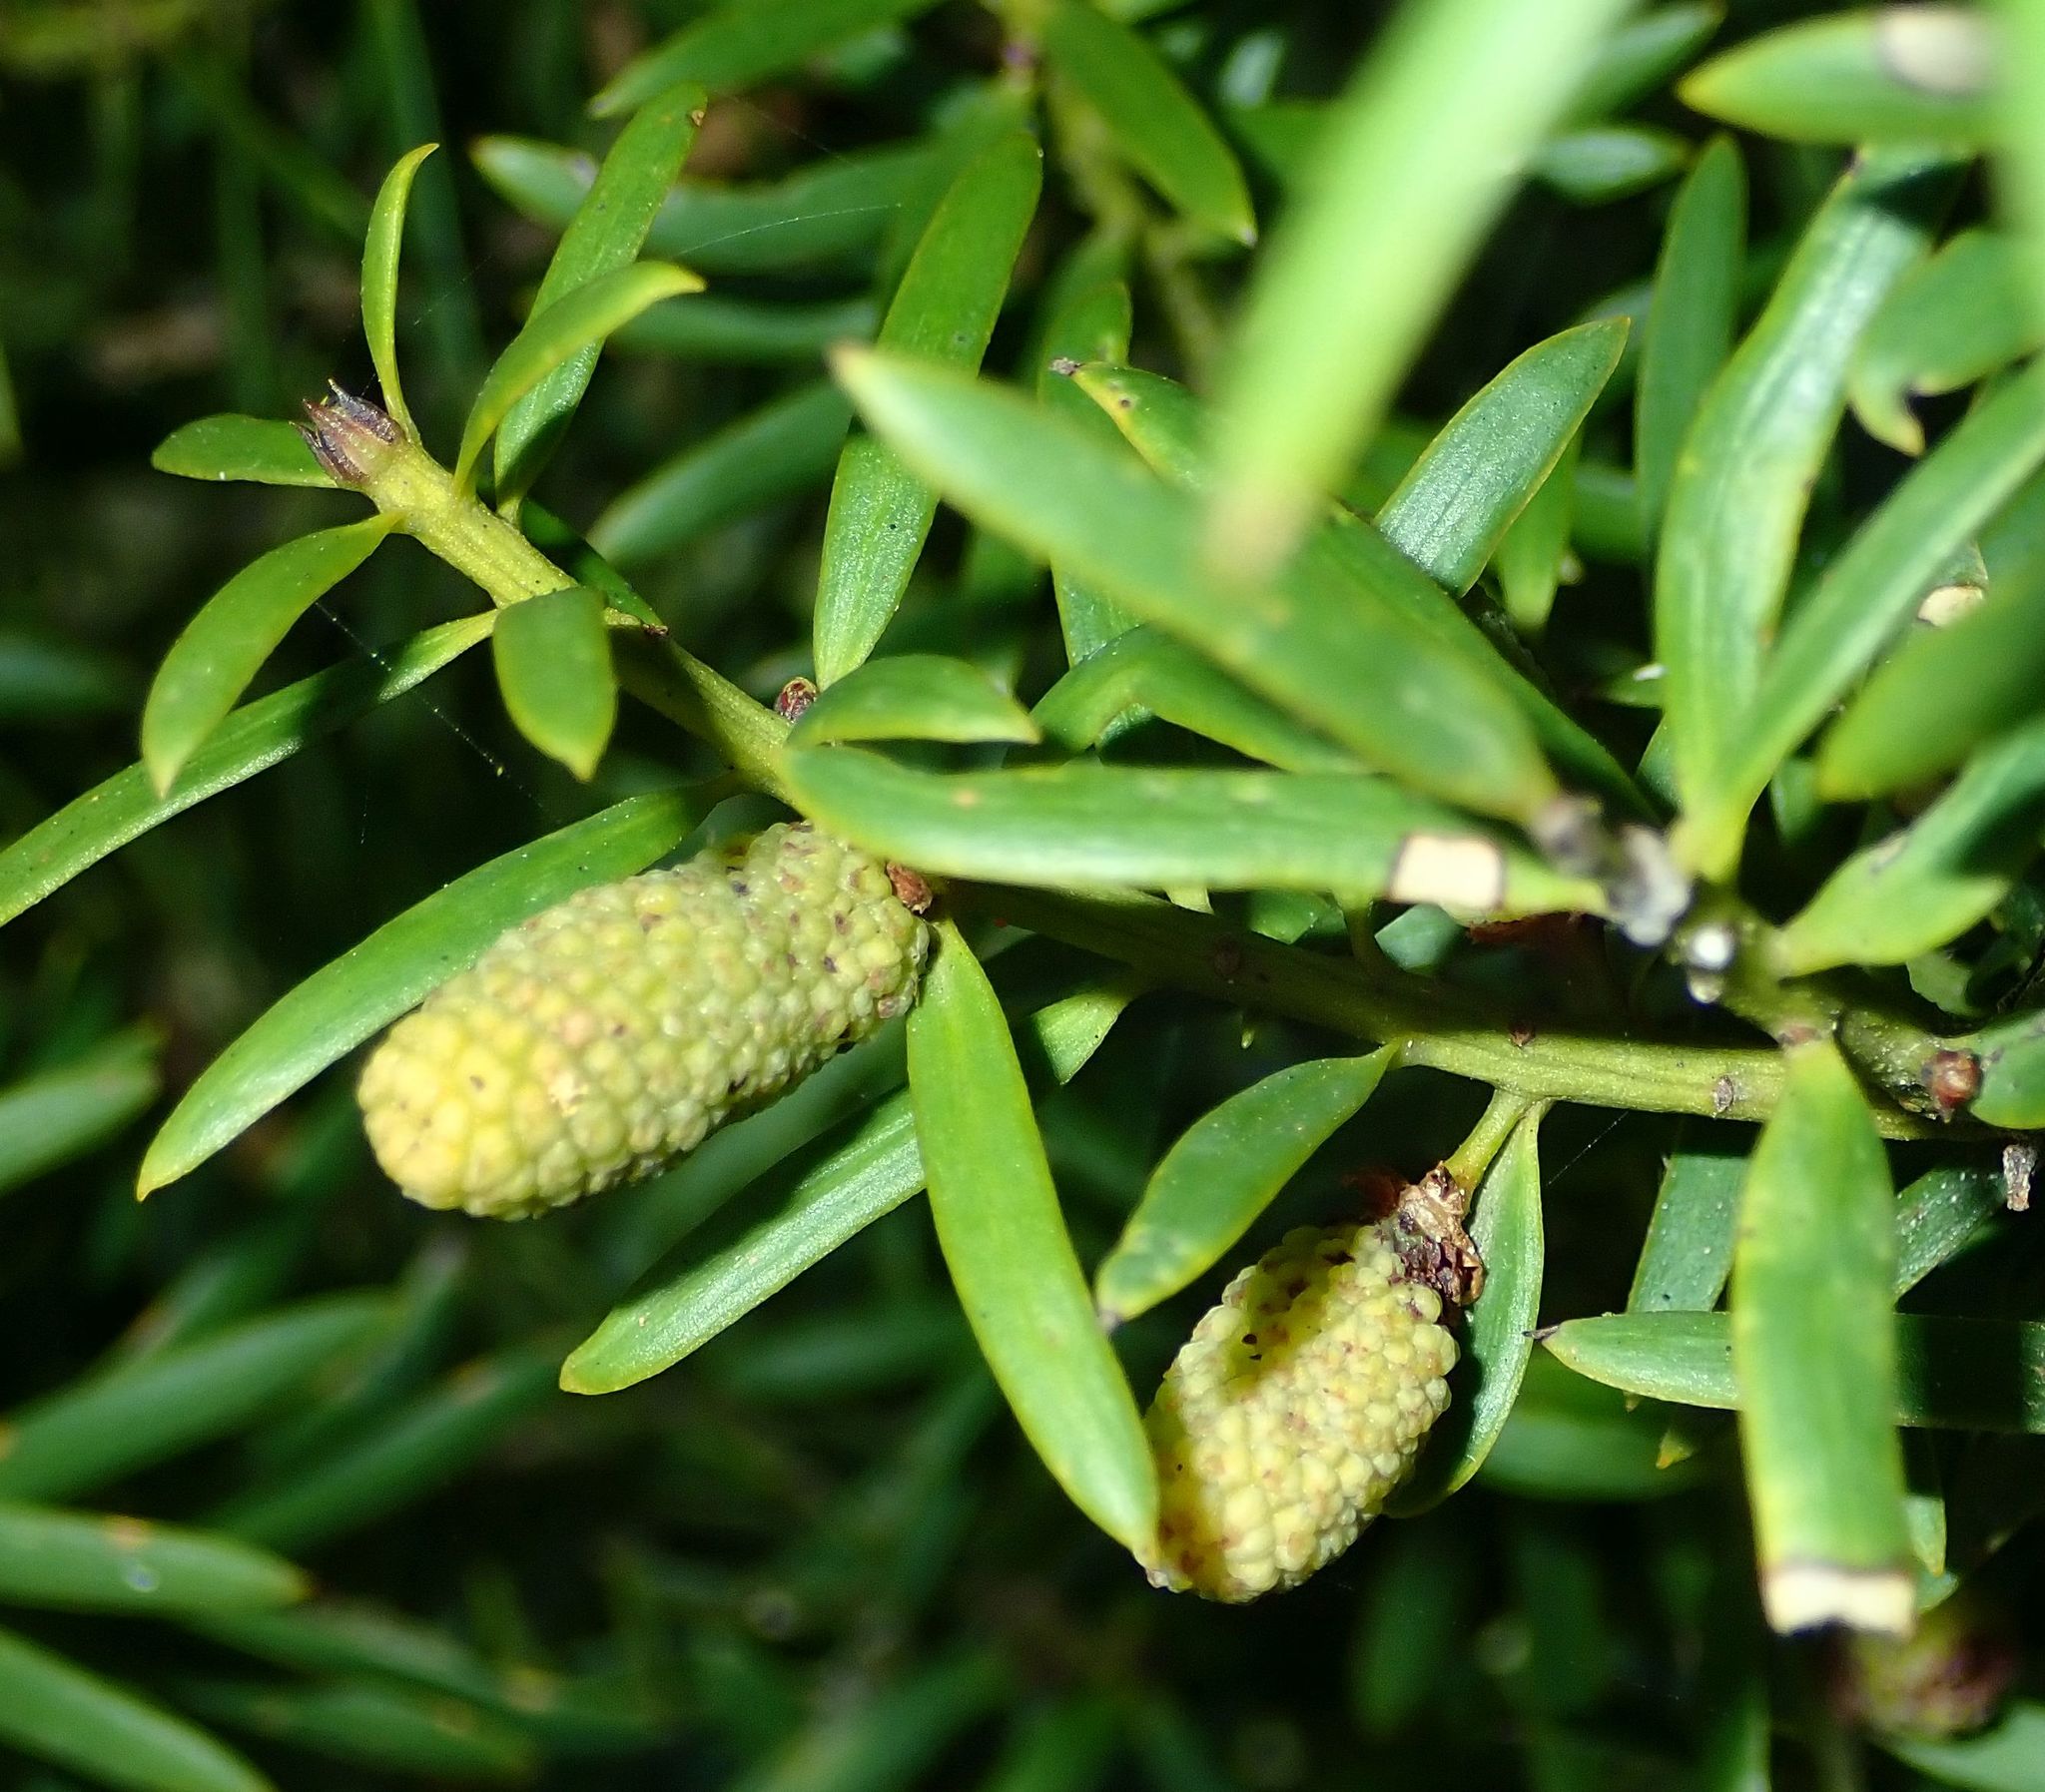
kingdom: Plantae
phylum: Tracheophyta
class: Pinopsida
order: Pinales
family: Podocarpaceae
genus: Podocarpus
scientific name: Podocarpus laetus
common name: Hall's totara
